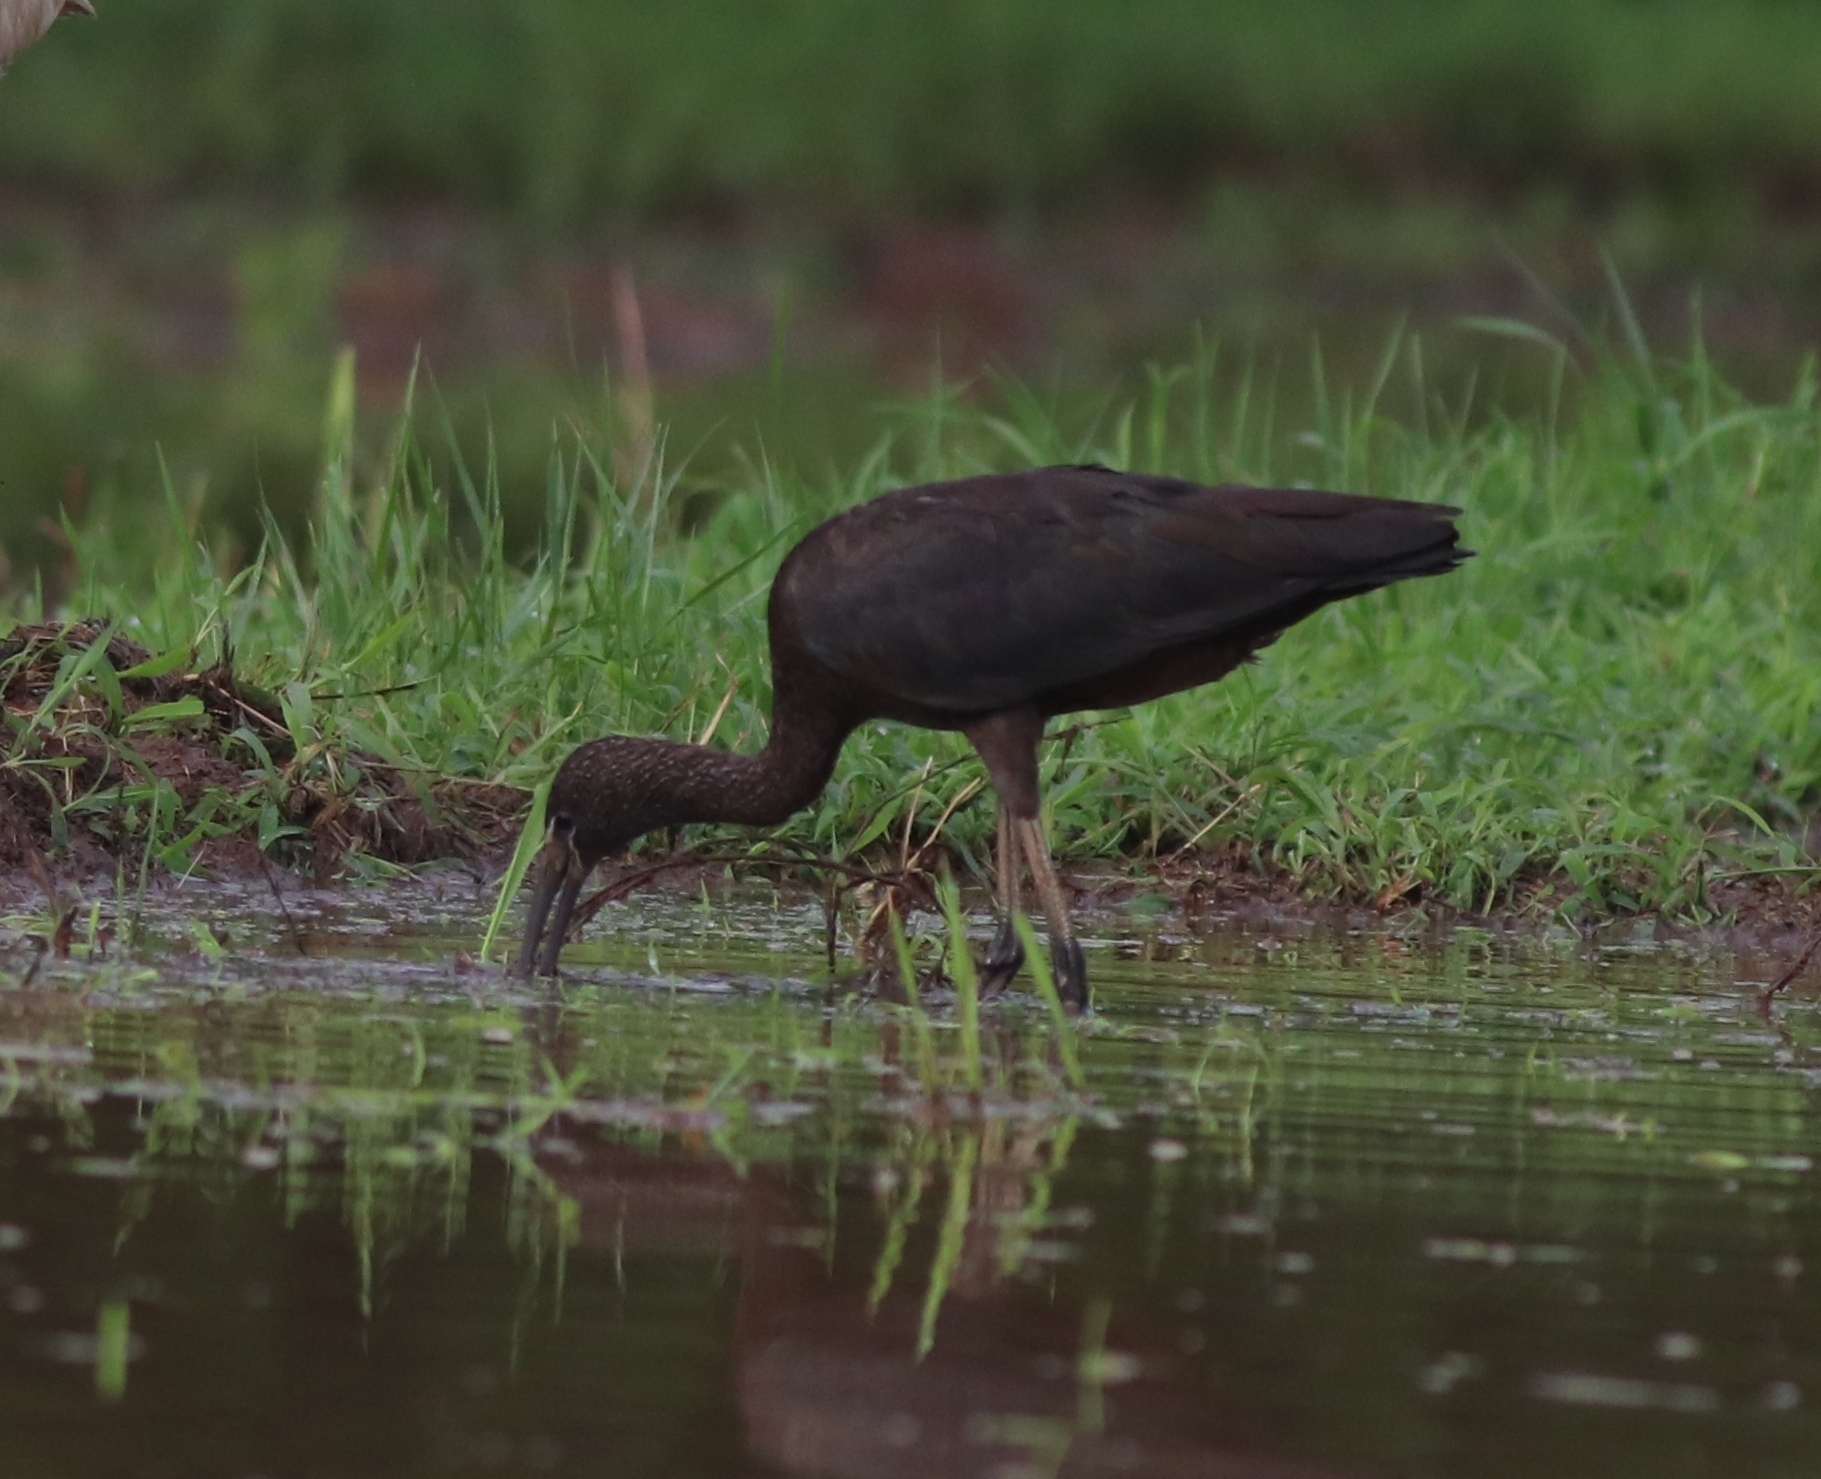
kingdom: Animalia
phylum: Chordata
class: Aves
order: Pelecaniformes
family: Threskiornithidae
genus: Plegadis
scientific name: Plegadis falcinellus
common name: Glossy ibis
